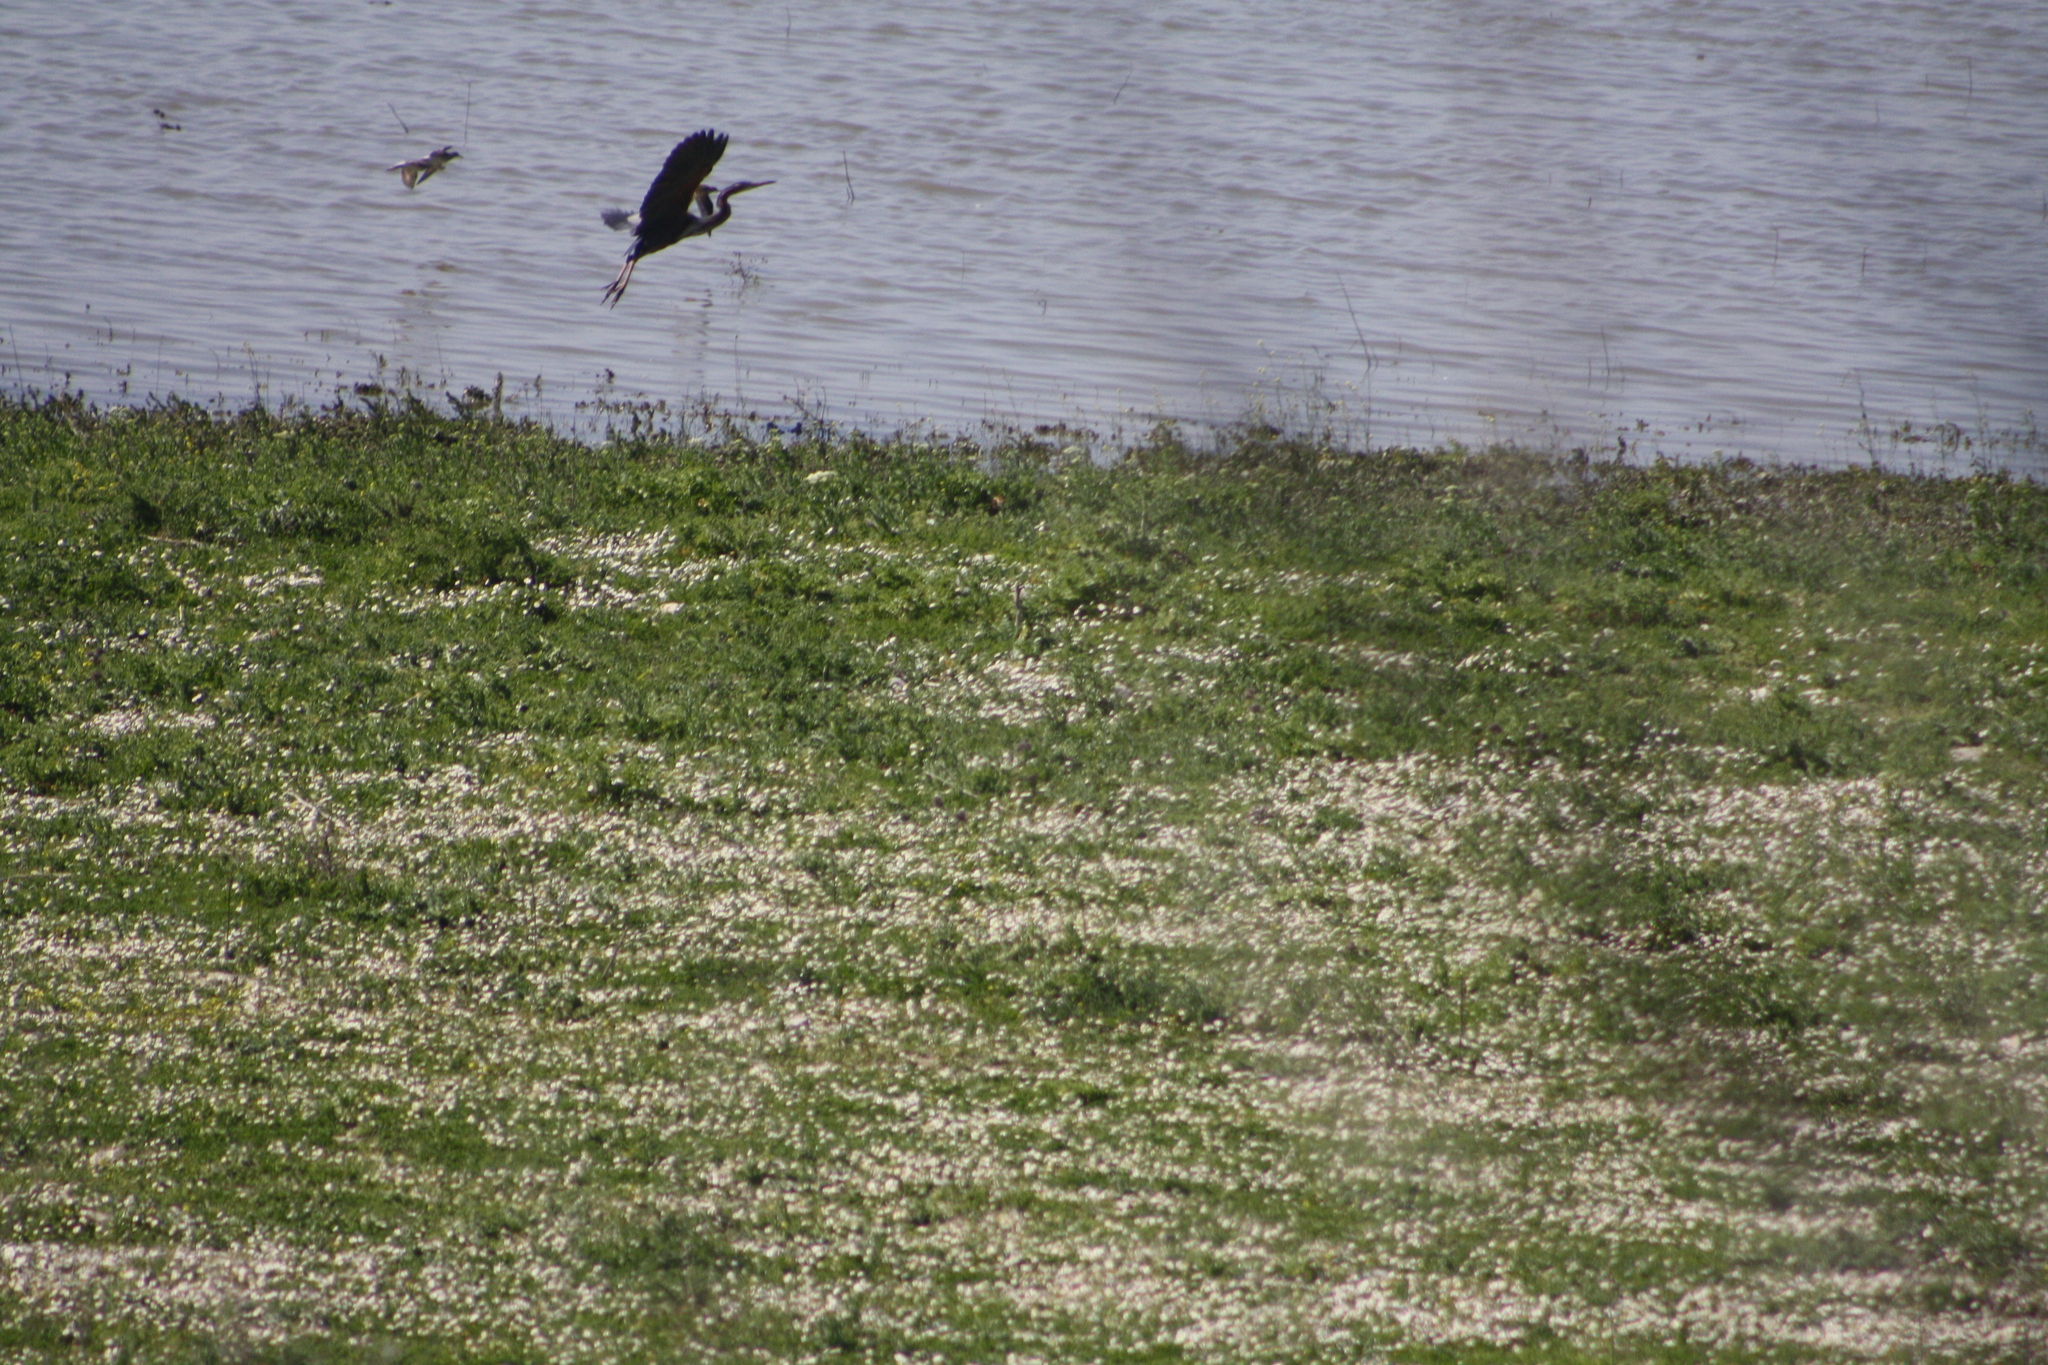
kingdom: Animalia
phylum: Chordata
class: Aves
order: Pelecaniformes
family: Ardeidae
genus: Ardea
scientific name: Ardea cinerea
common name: Grey heron
